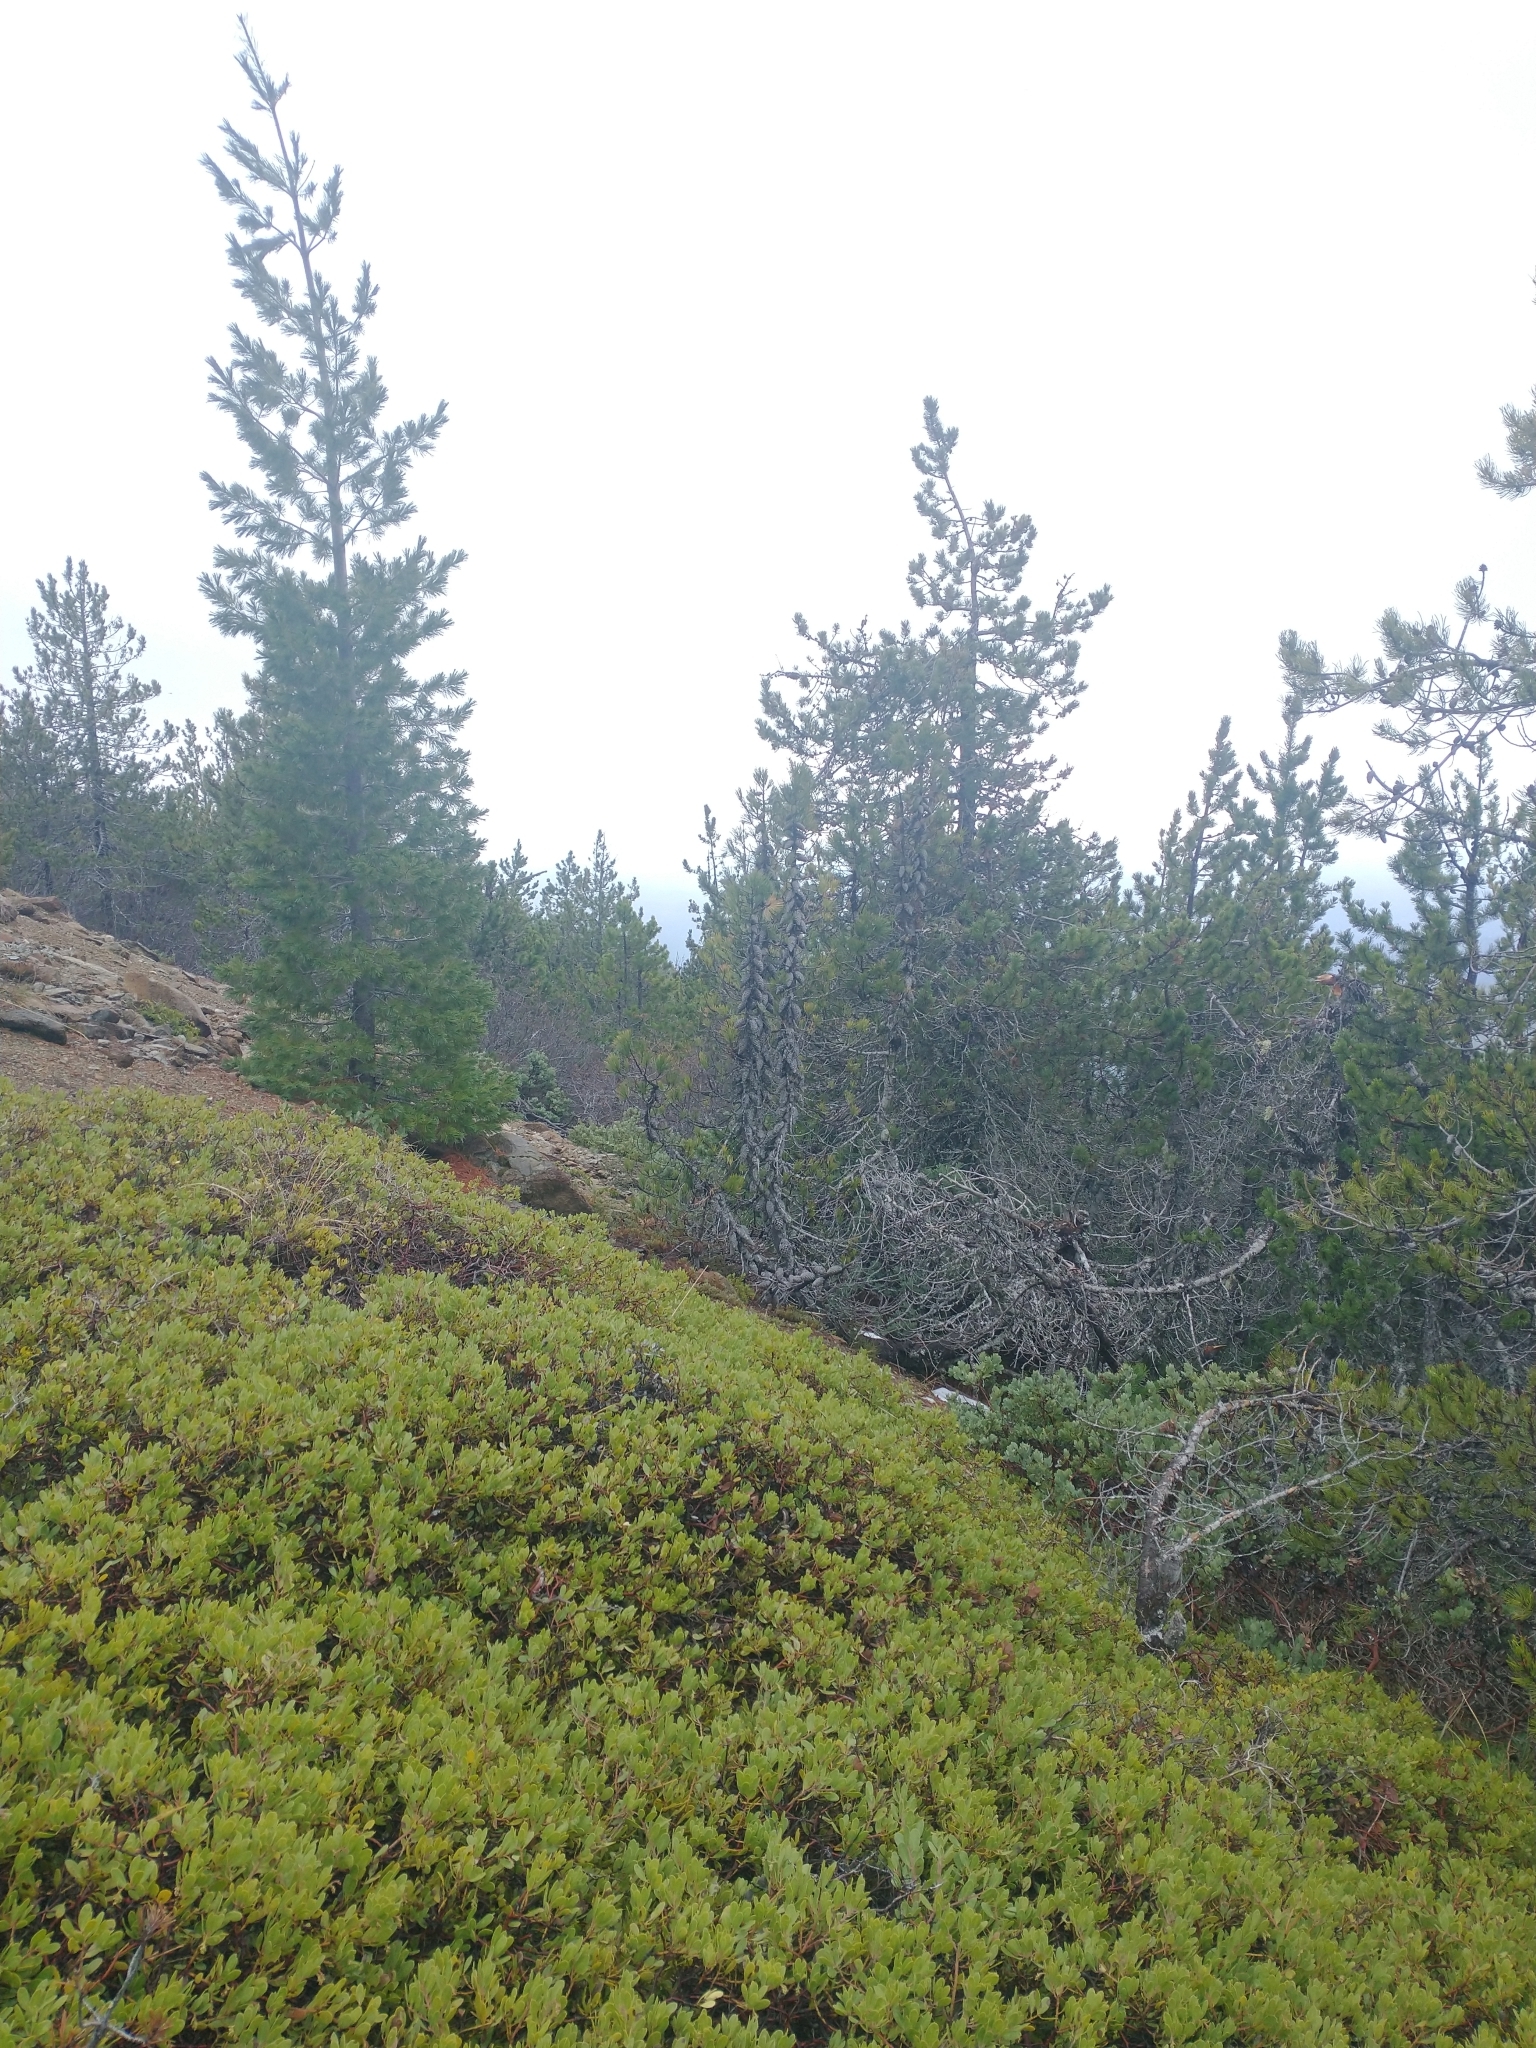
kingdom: Plantae
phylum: Tracheophyta
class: Magnoliopsida
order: Ericales
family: Ericaceae
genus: Arctostaphylos
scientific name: Arctostaphylos nevadensis
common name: Pinemat manzanita
